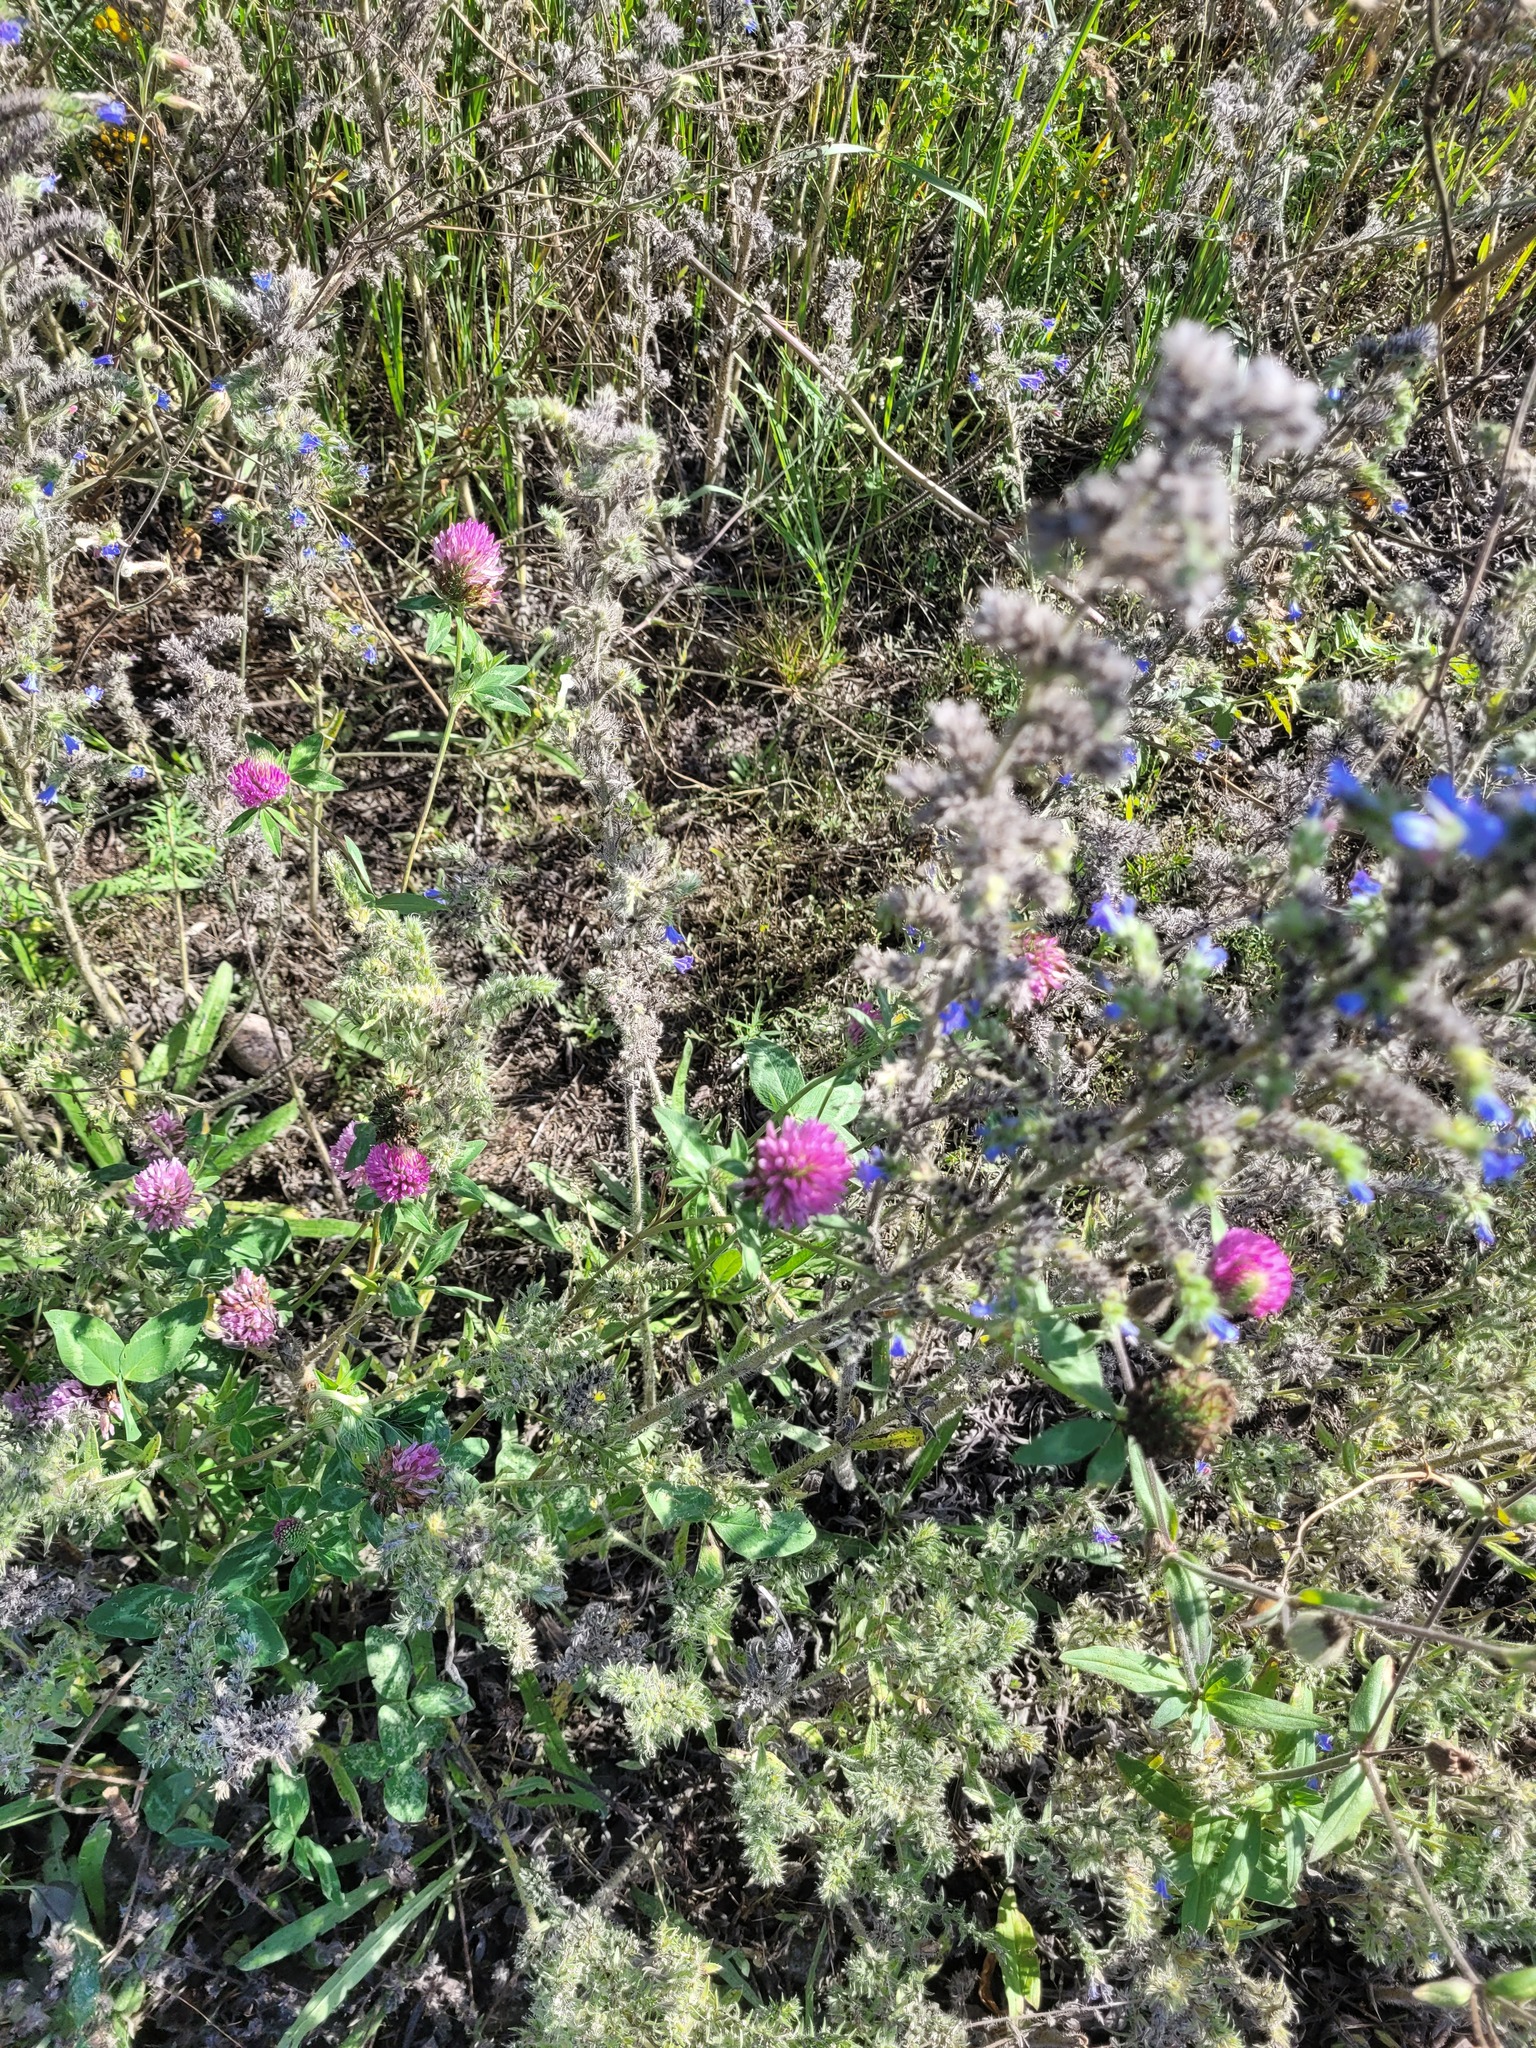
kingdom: Plantae
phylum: Tracheophyta
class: Magnoliopsida
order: Fabales
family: Fabaceae
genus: Trifolium
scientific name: Trifolium pratense
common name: Red clover
